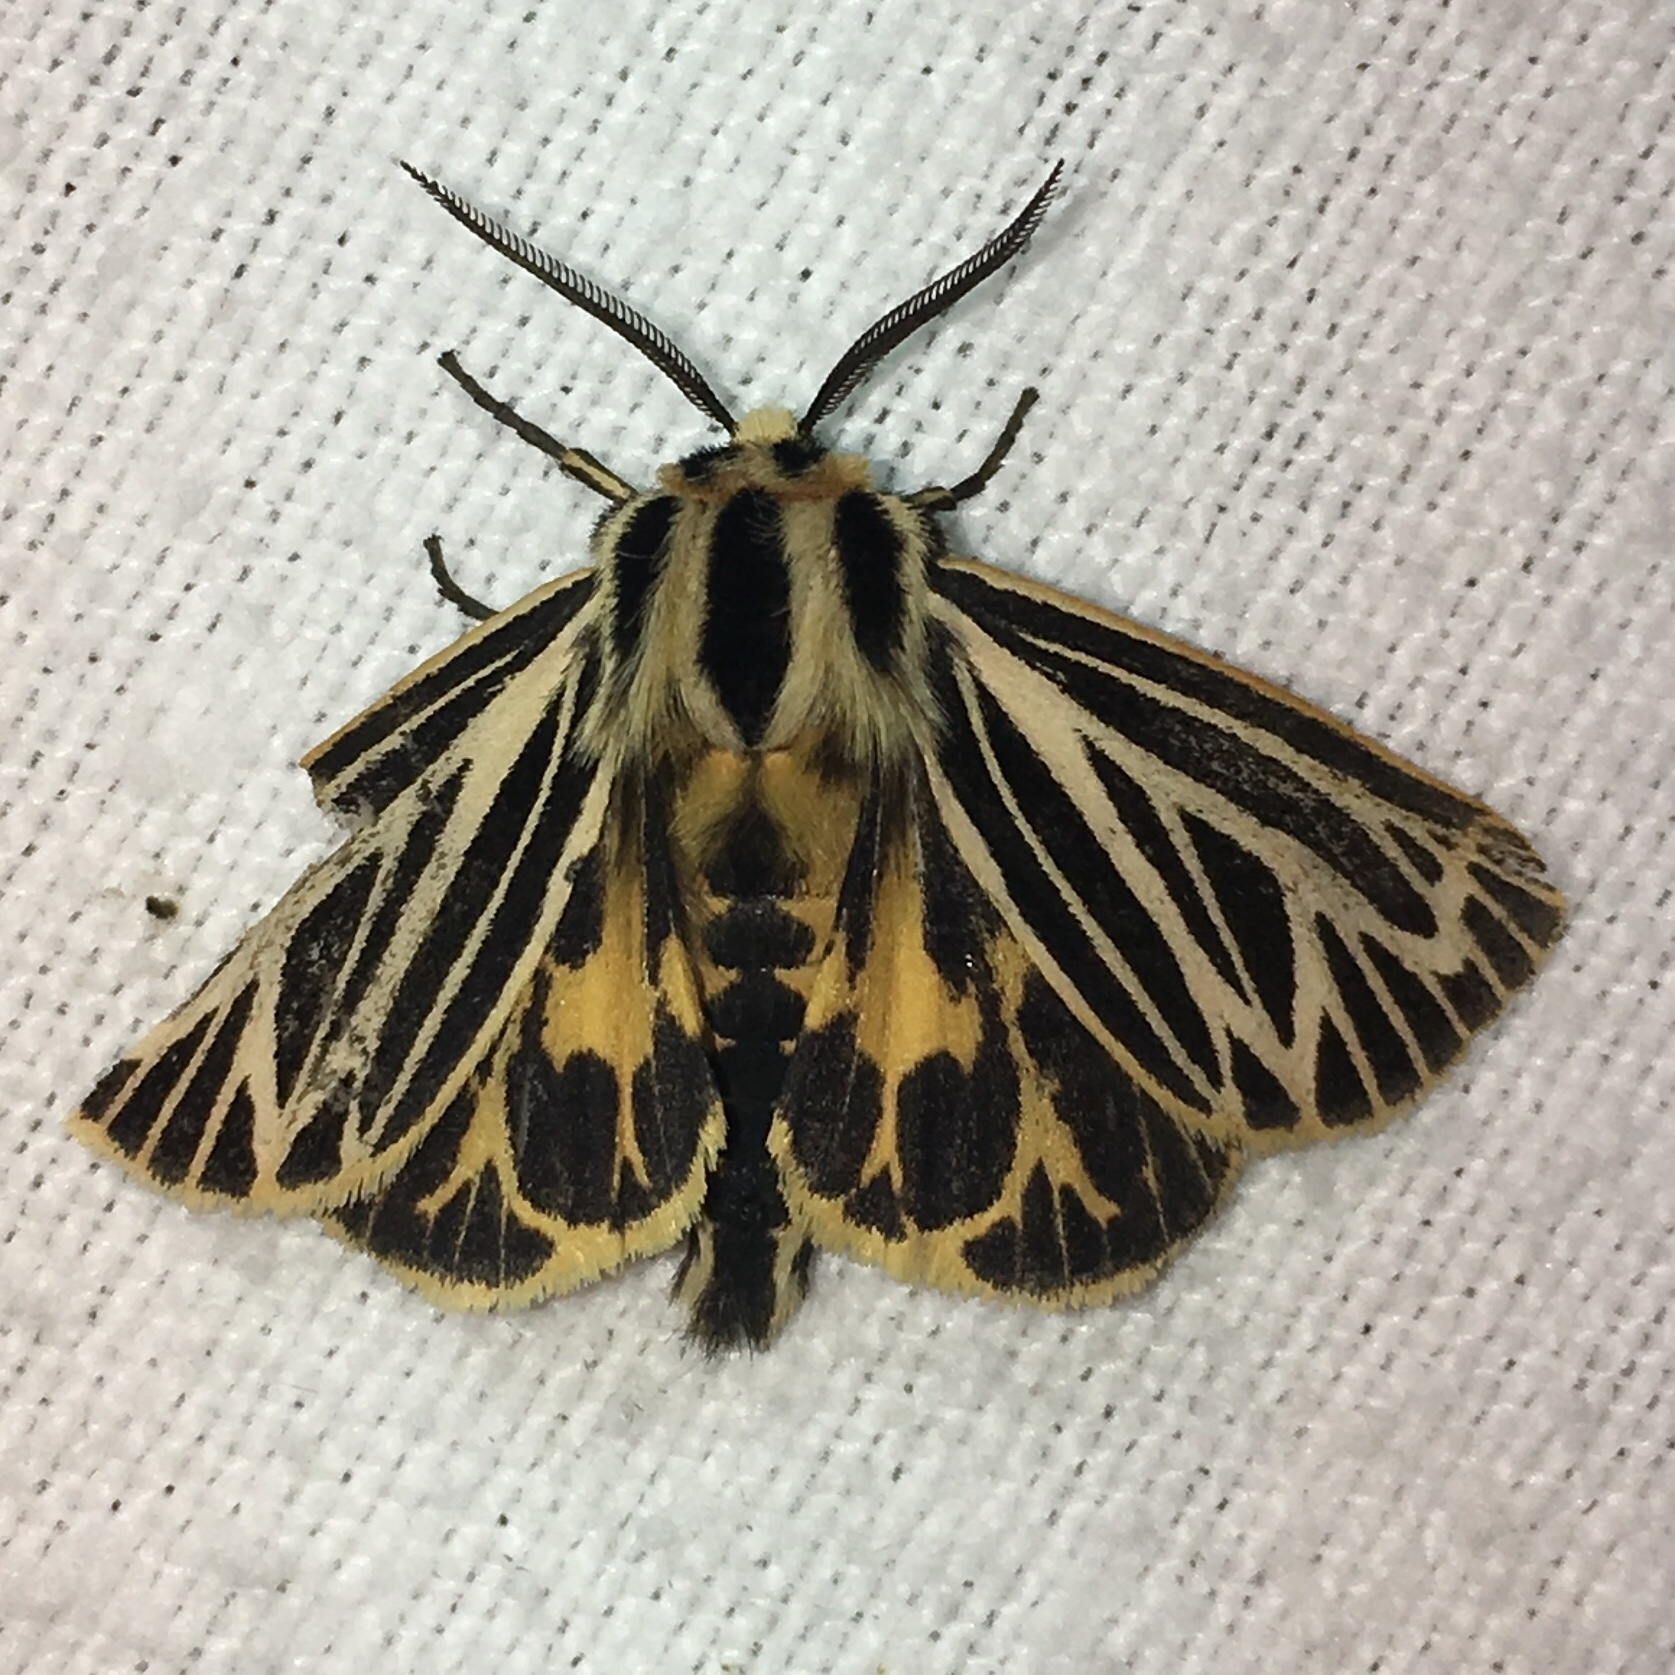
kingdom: Animalia
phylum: Arthropoda
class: Insecta
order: Lepidoptera
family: Erebidae
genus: Grammia
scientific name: Grammia virguncula
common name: Little tiger moth
